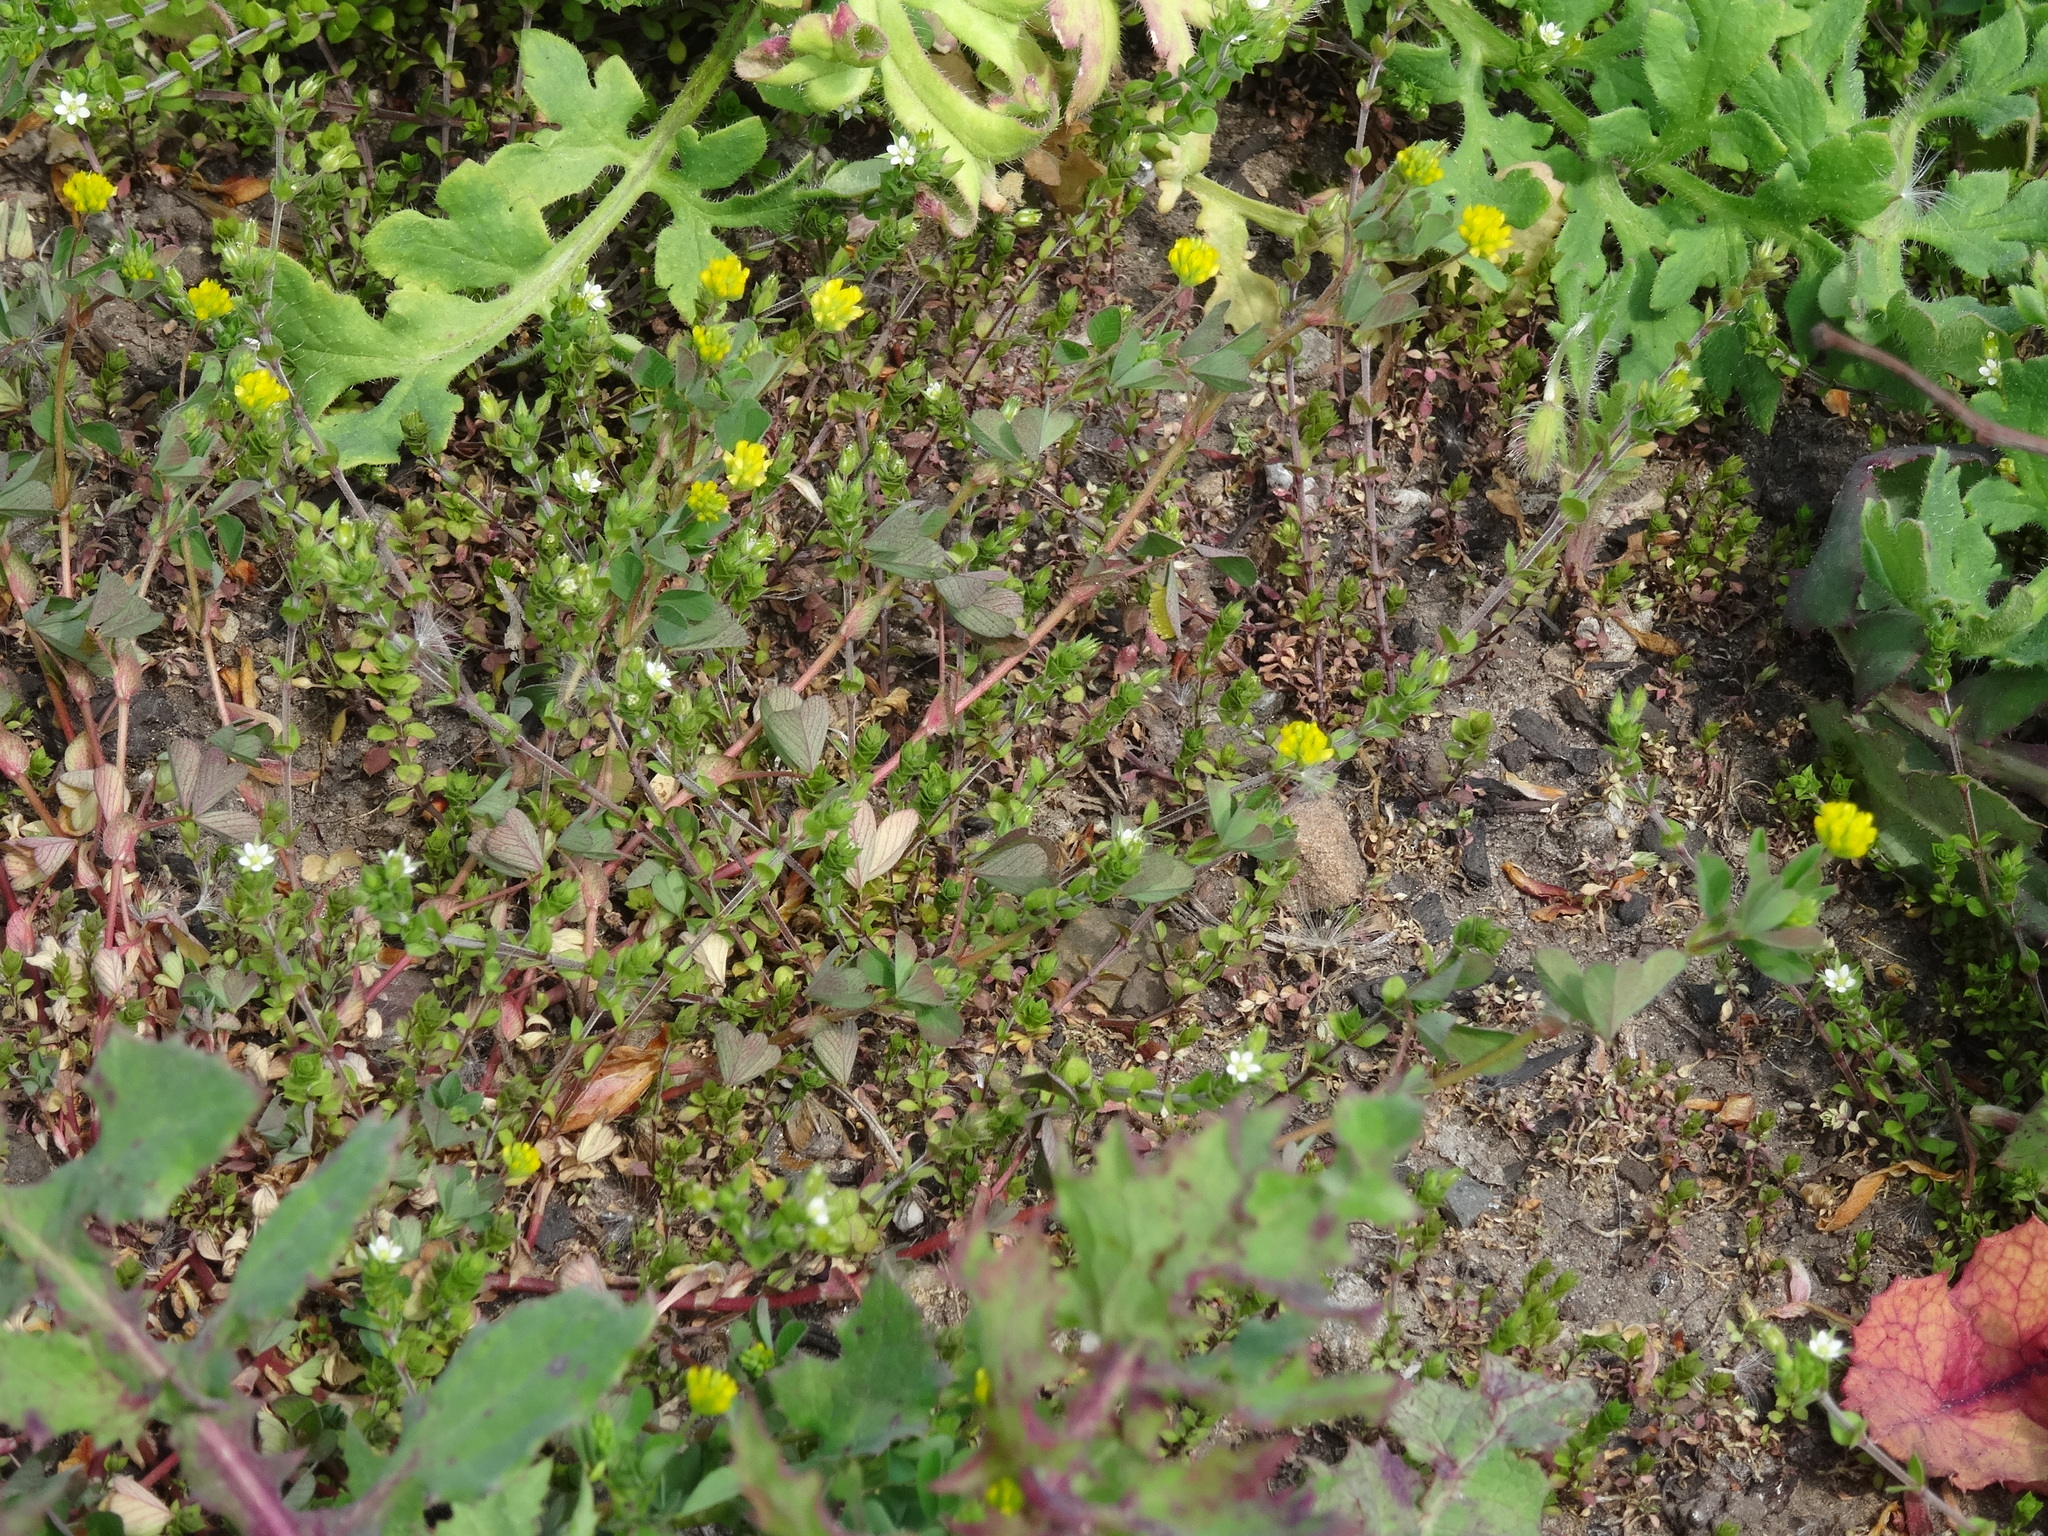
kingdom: Plantae
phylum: Tracheophyta
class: Magnoliopsida
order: Fabales
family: Fabaceae
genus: Trifolium
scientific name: Trifolium dubium
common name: Suckling clover
